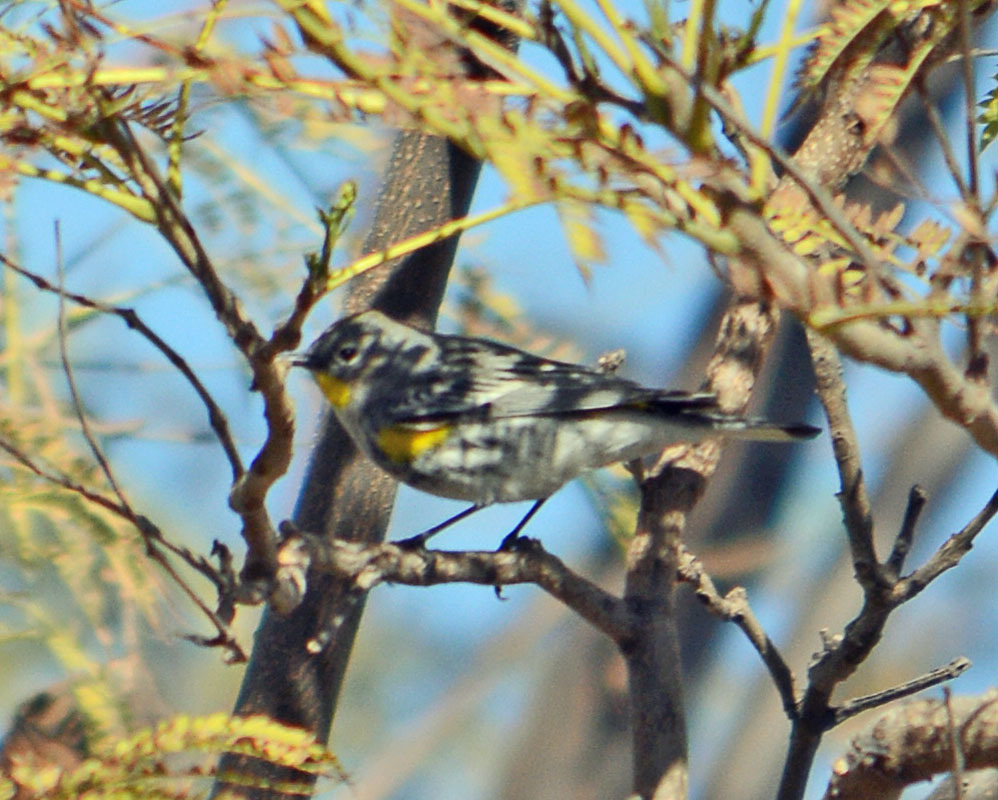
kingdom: Animalia
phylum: Chordata
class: Aves
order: Passeriformes
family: Parulidae
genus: Setophaga
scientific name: Setophaga auduboni
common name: Audubon's warbler
